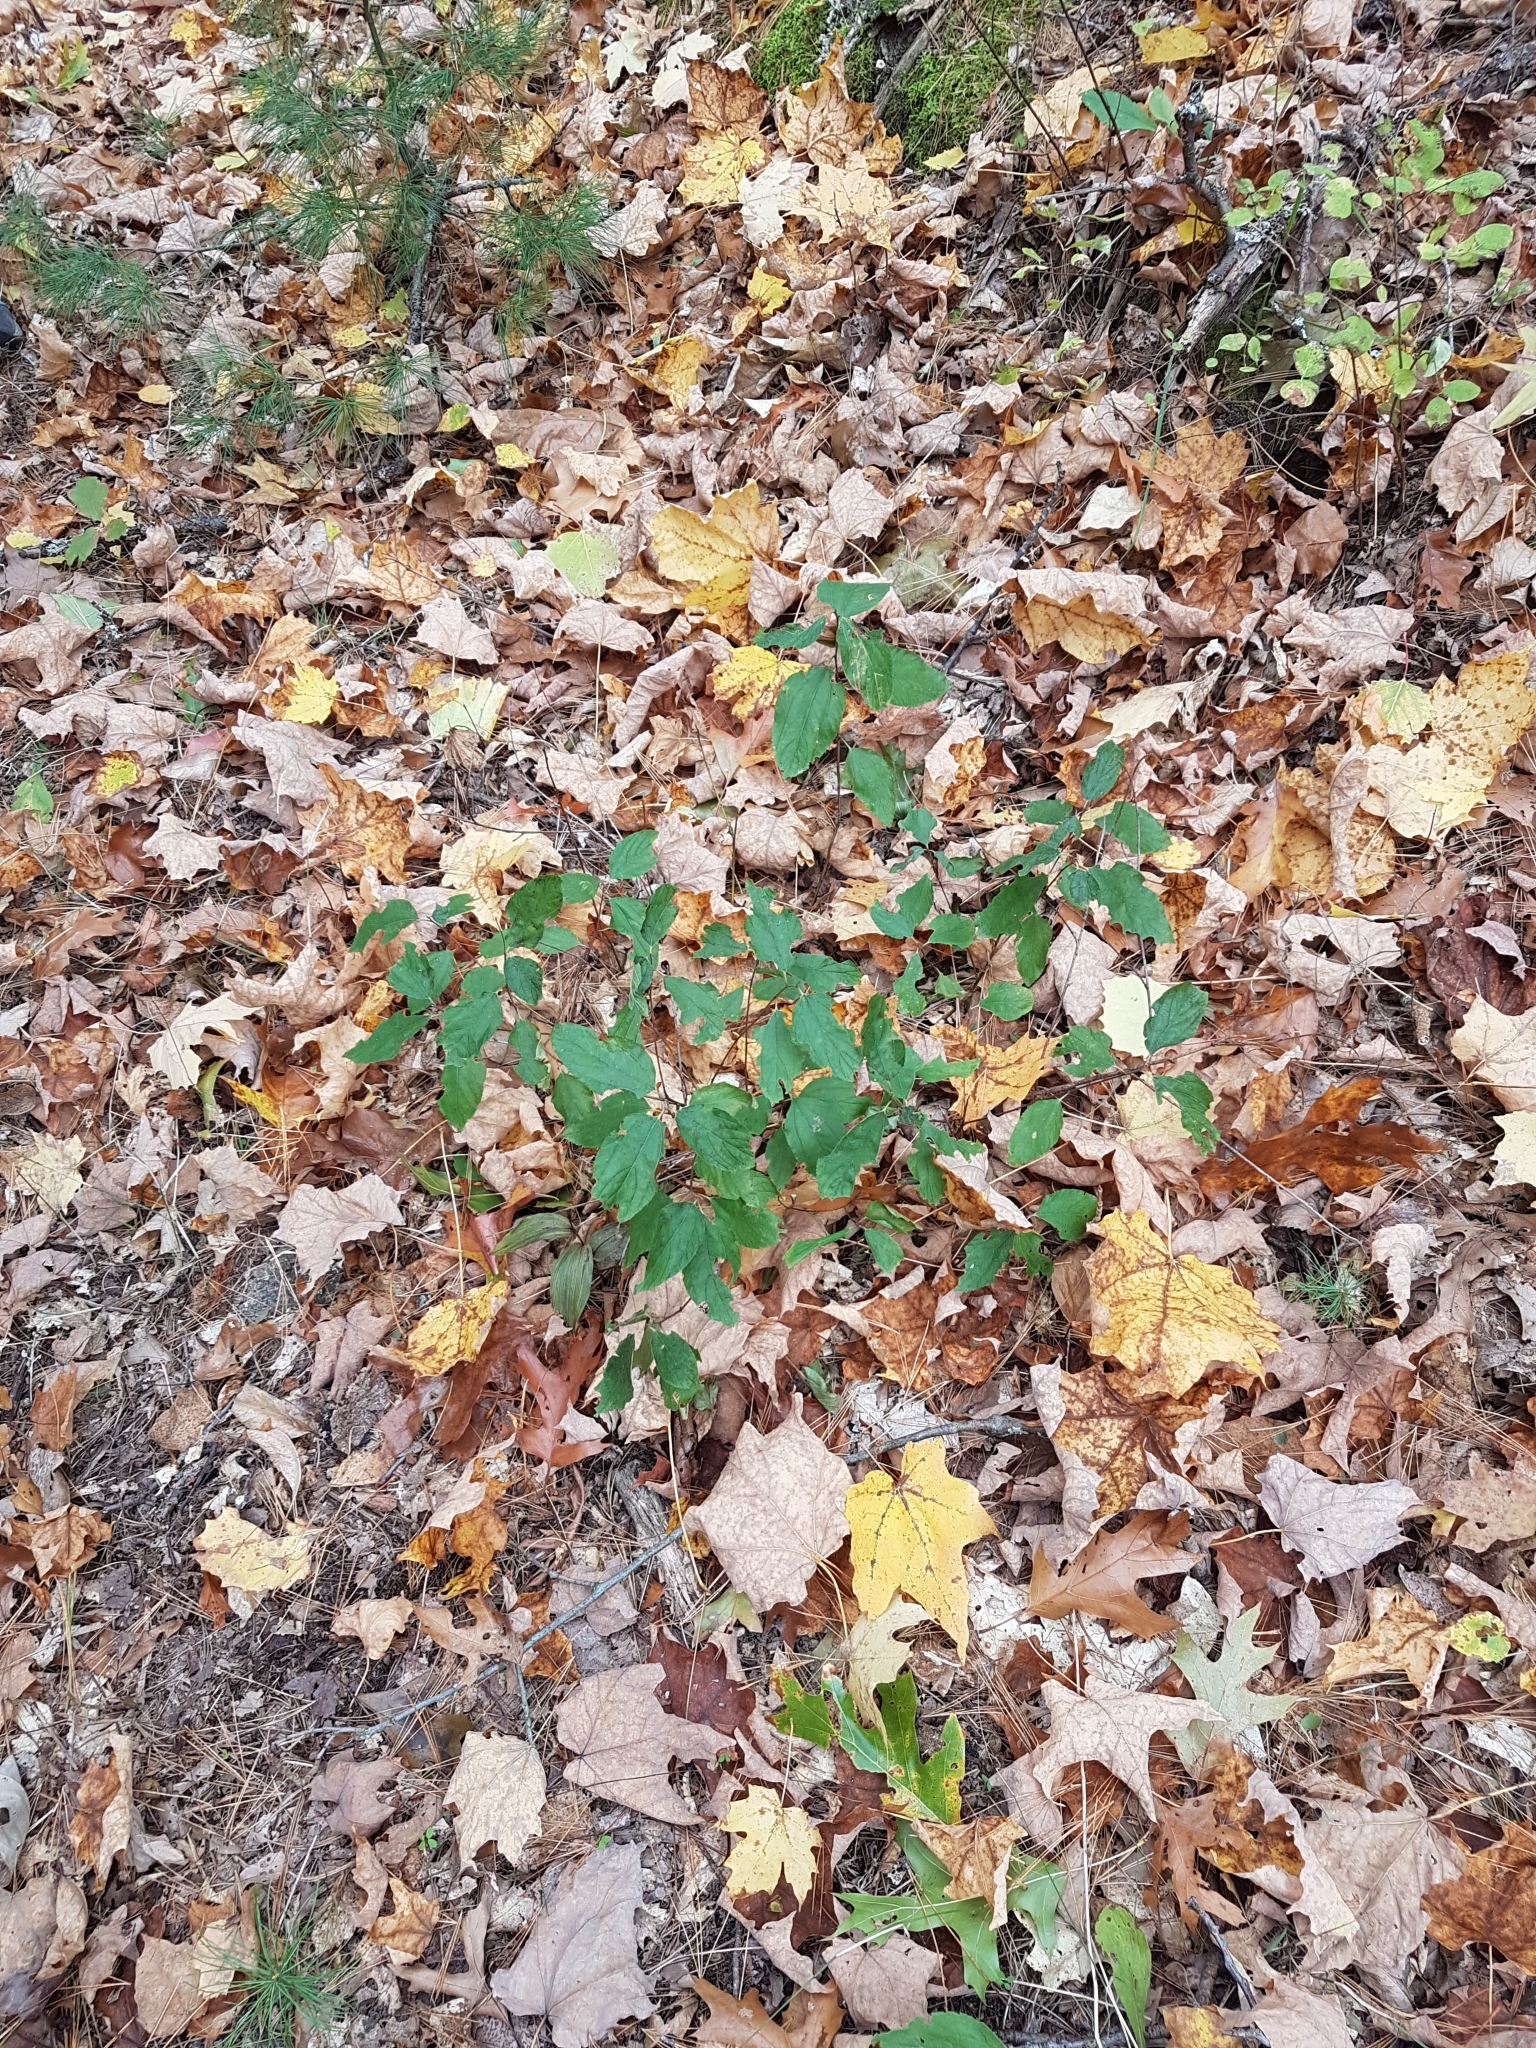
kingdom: Plantae
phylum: Tracheophyta
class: Magnoliopsida
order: Rosales
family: Rhamnaceae
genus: Ceanothus
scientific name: Ceanothus americanus
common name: Redroot
